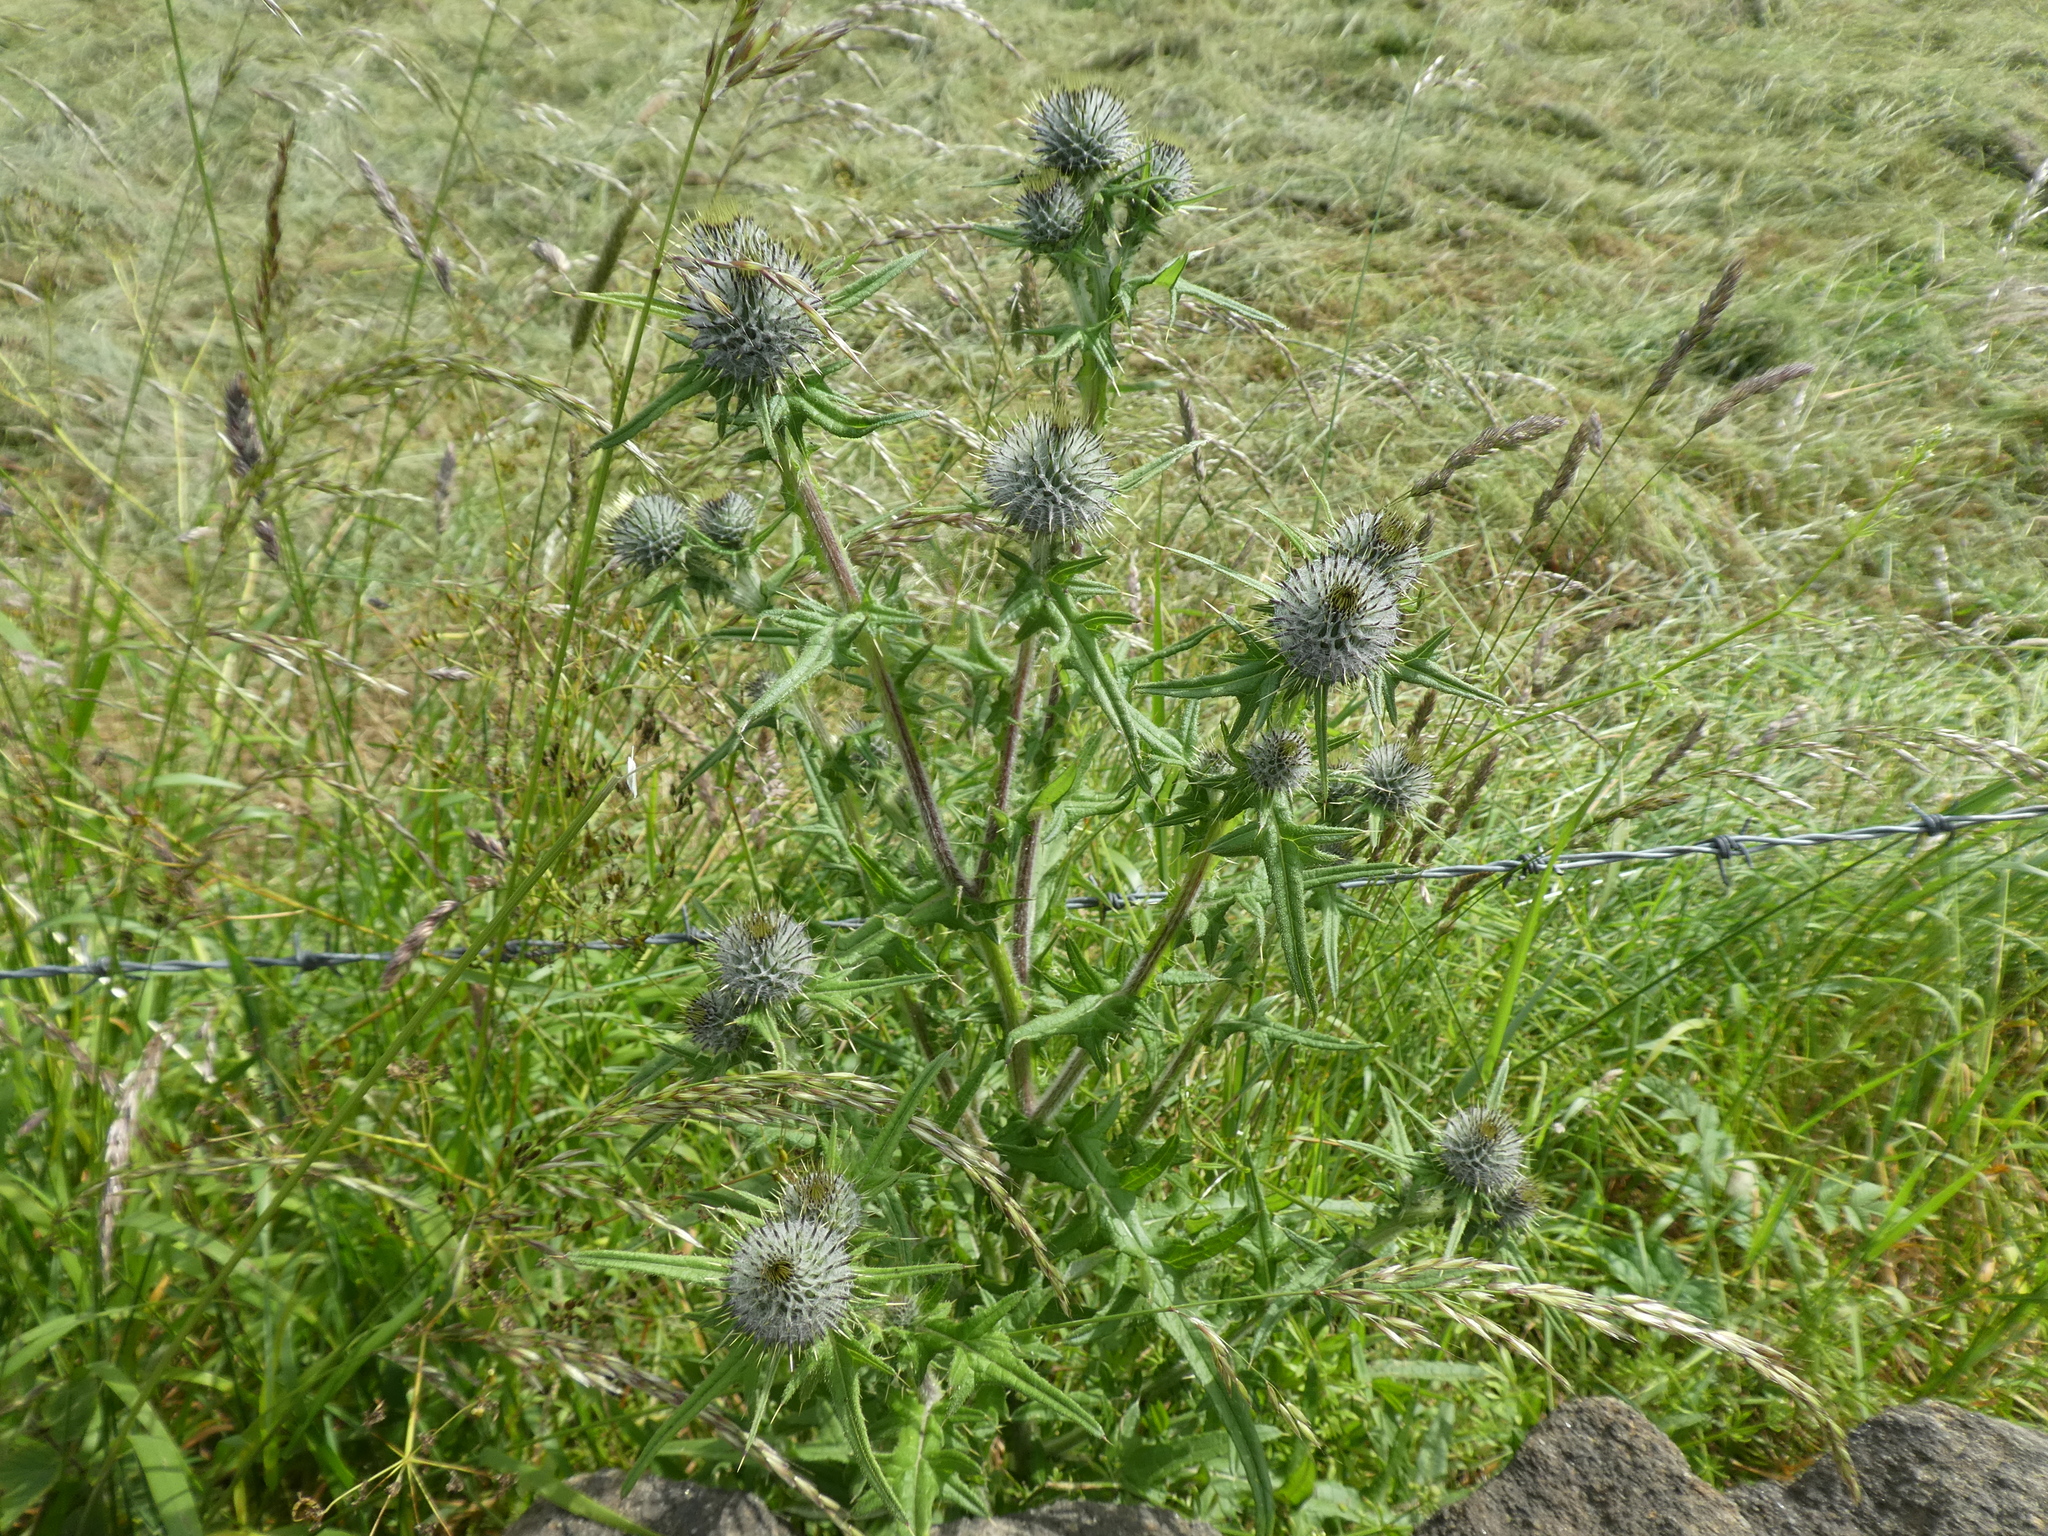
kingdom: Plantae
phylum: Tracheophyta
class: Magnoliopsida
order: Asterales
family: Asteraceae
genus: Cirsium
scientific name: Cirsium vulgare
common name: Bull thistle
